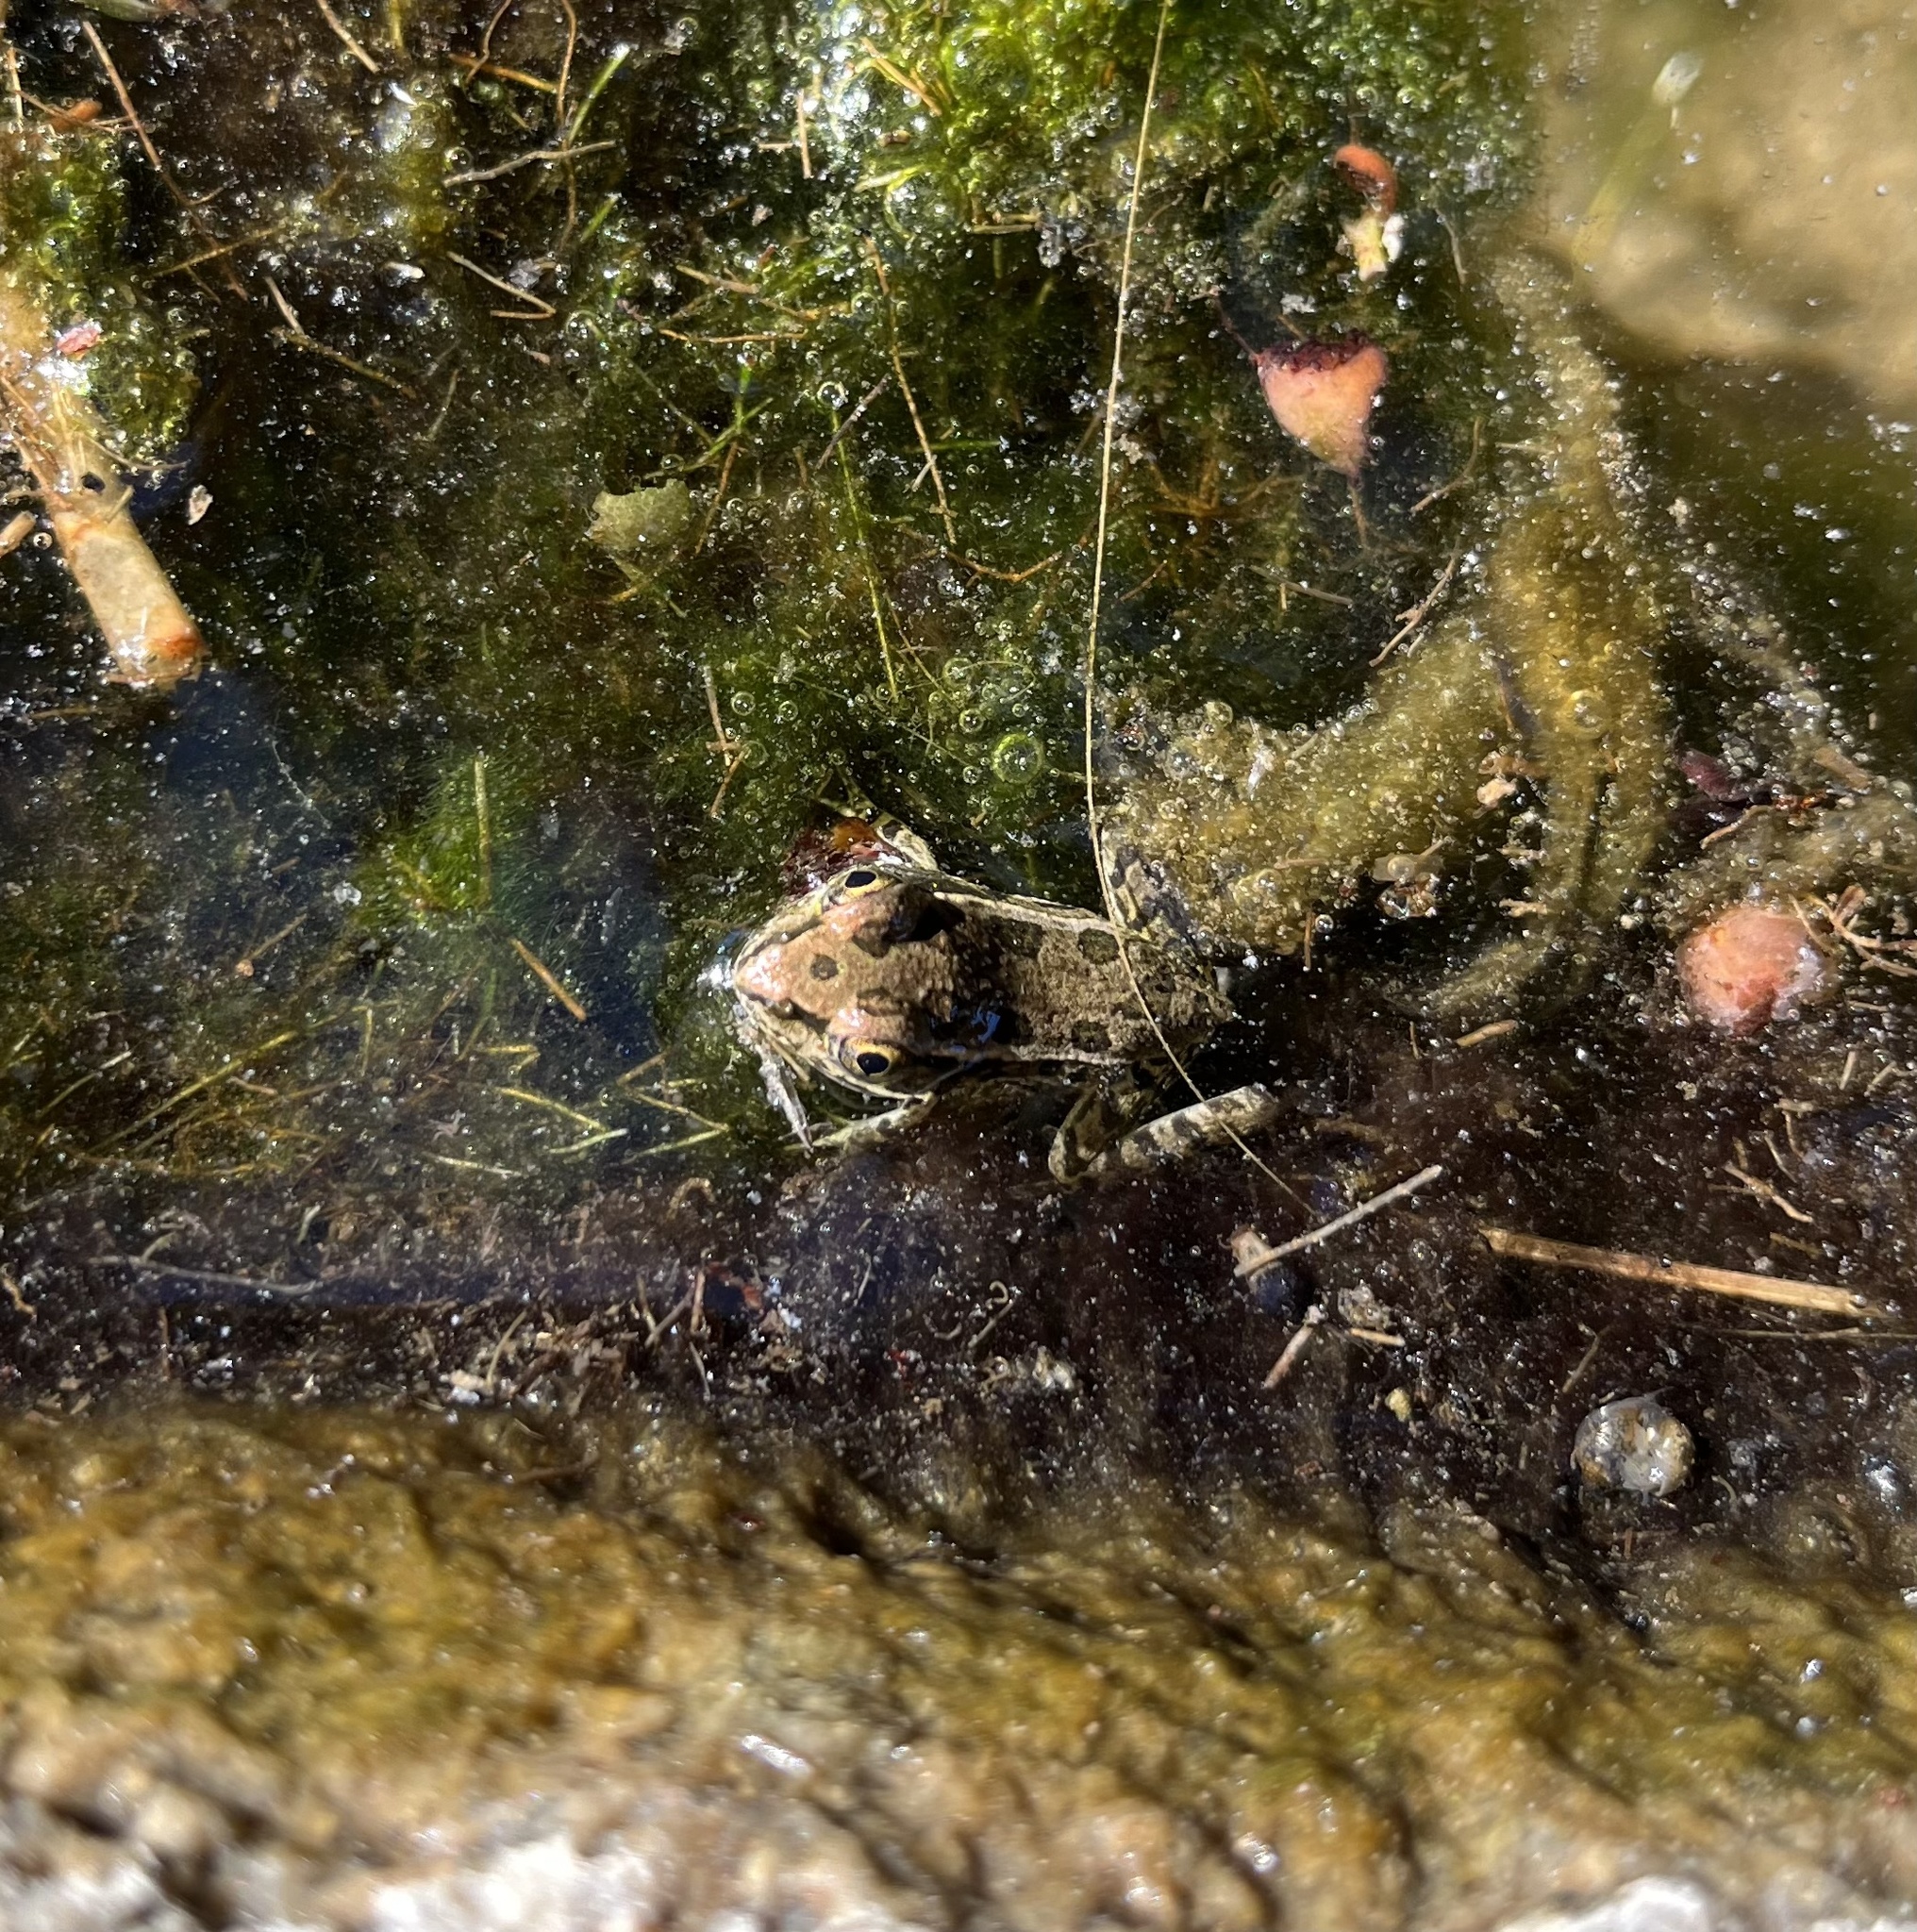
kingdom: Animalia
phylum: Chordata
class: Amphibia
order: Anura
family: Ranidae
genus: Lithobates
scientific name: Lithobates berlandieri
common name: Rio grande leopard frog
